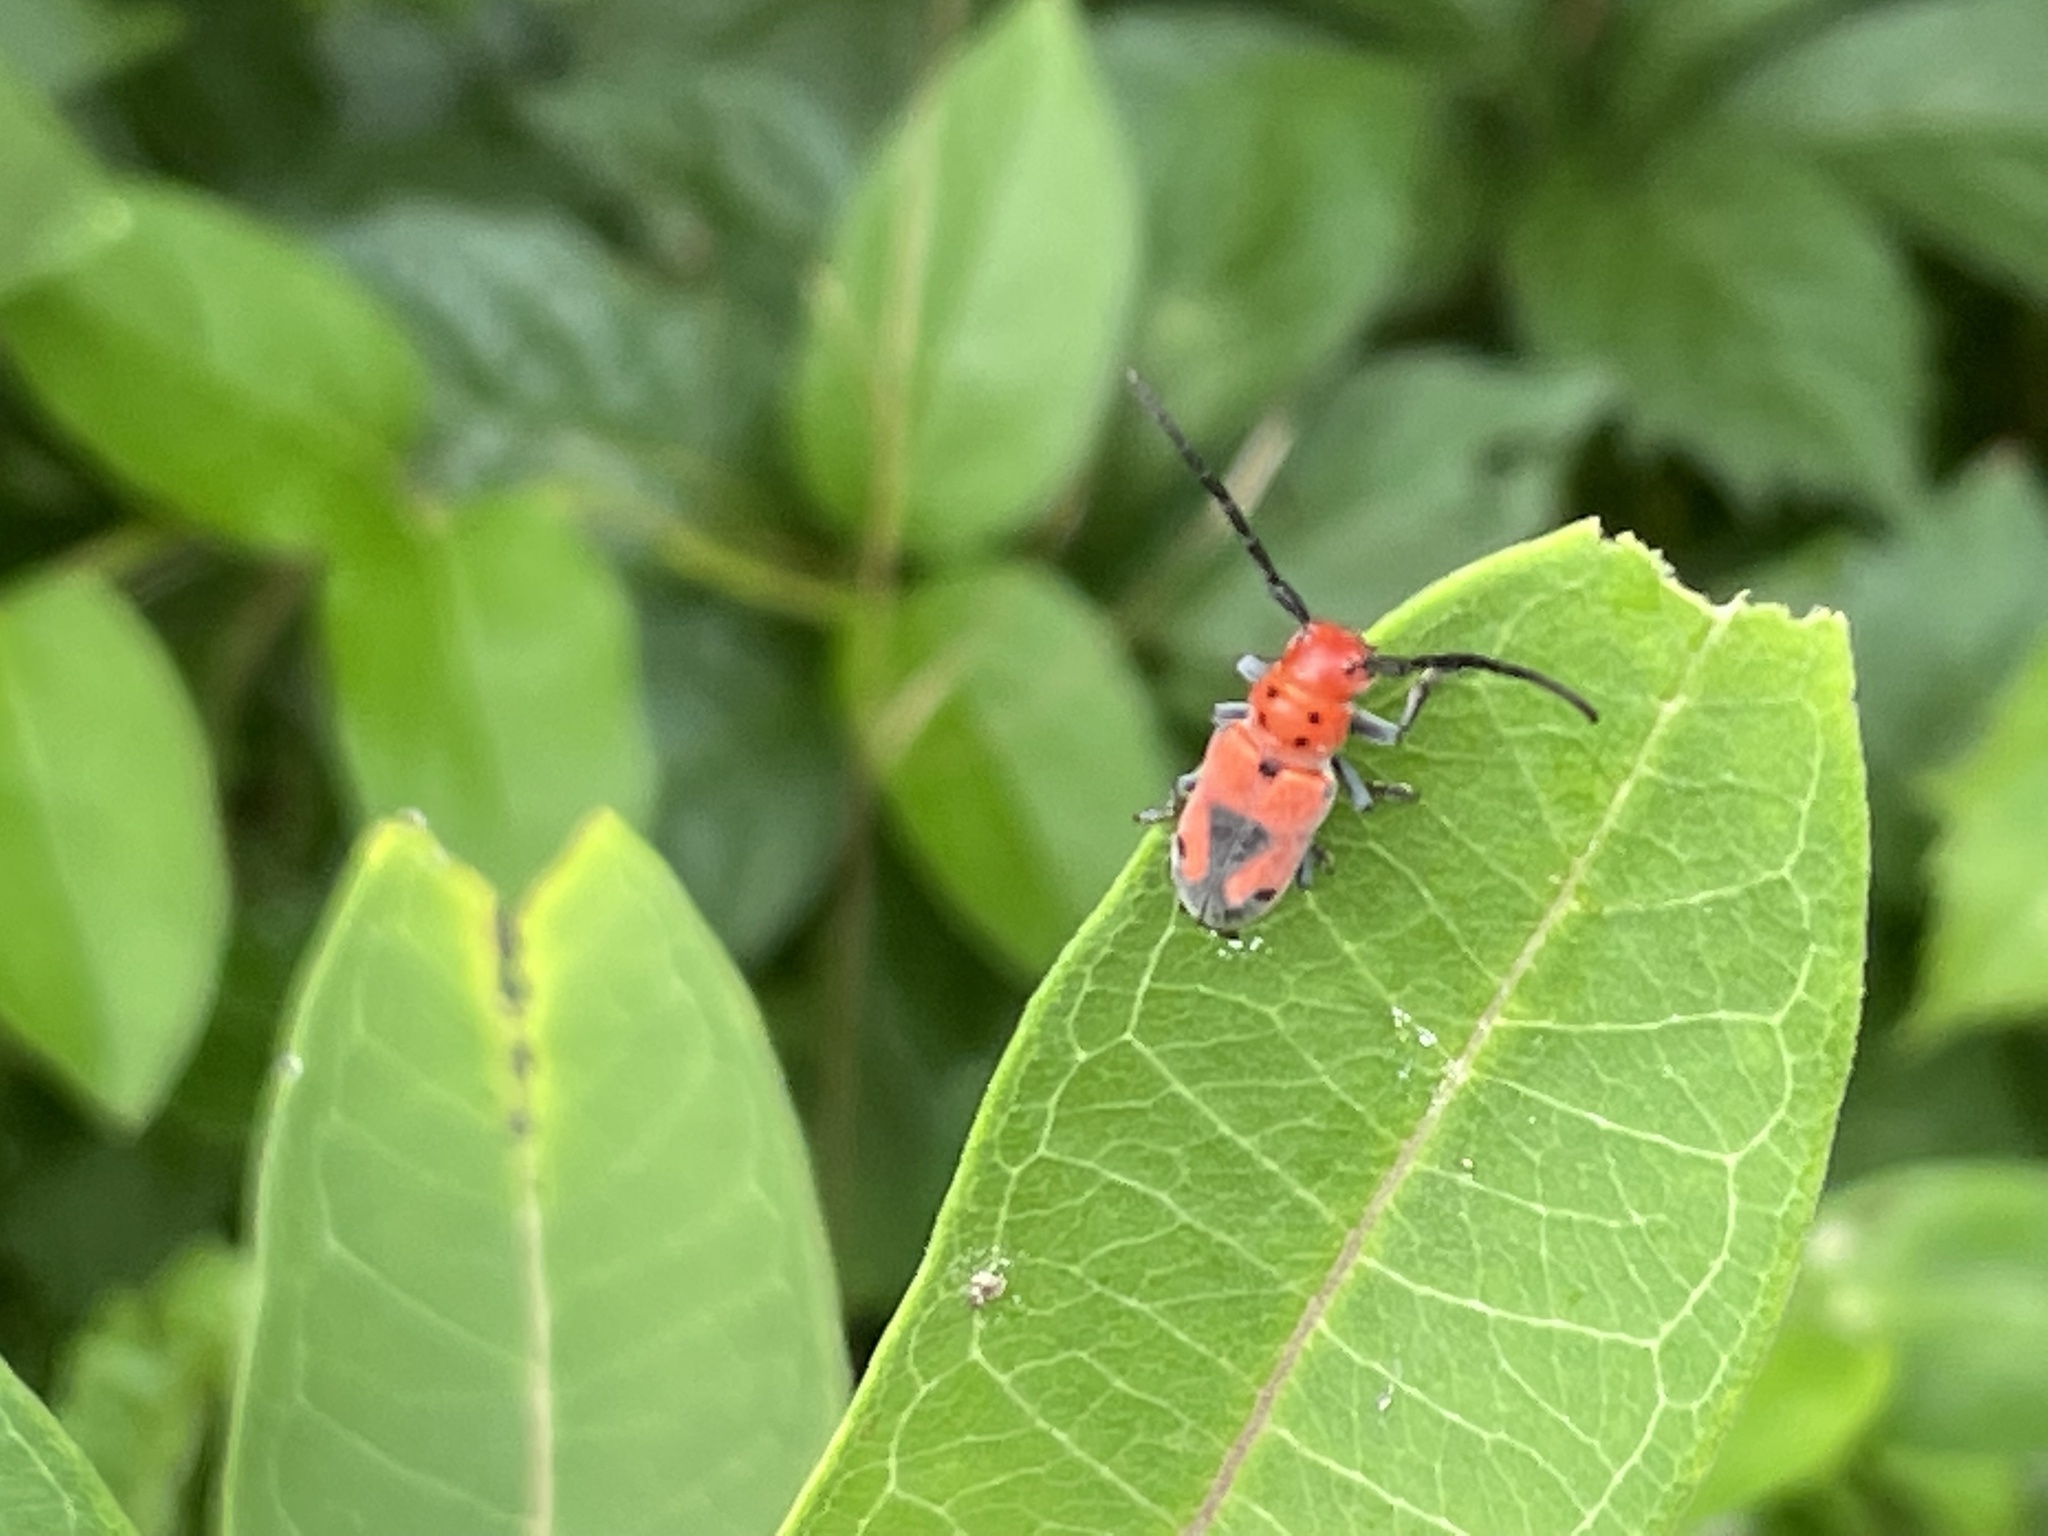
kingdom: Animalia
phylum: Arthropoda
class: Insecta
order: Coleoptera
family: Cerambycidae
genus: Tetraopes
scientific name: Tetraopes melanurus
